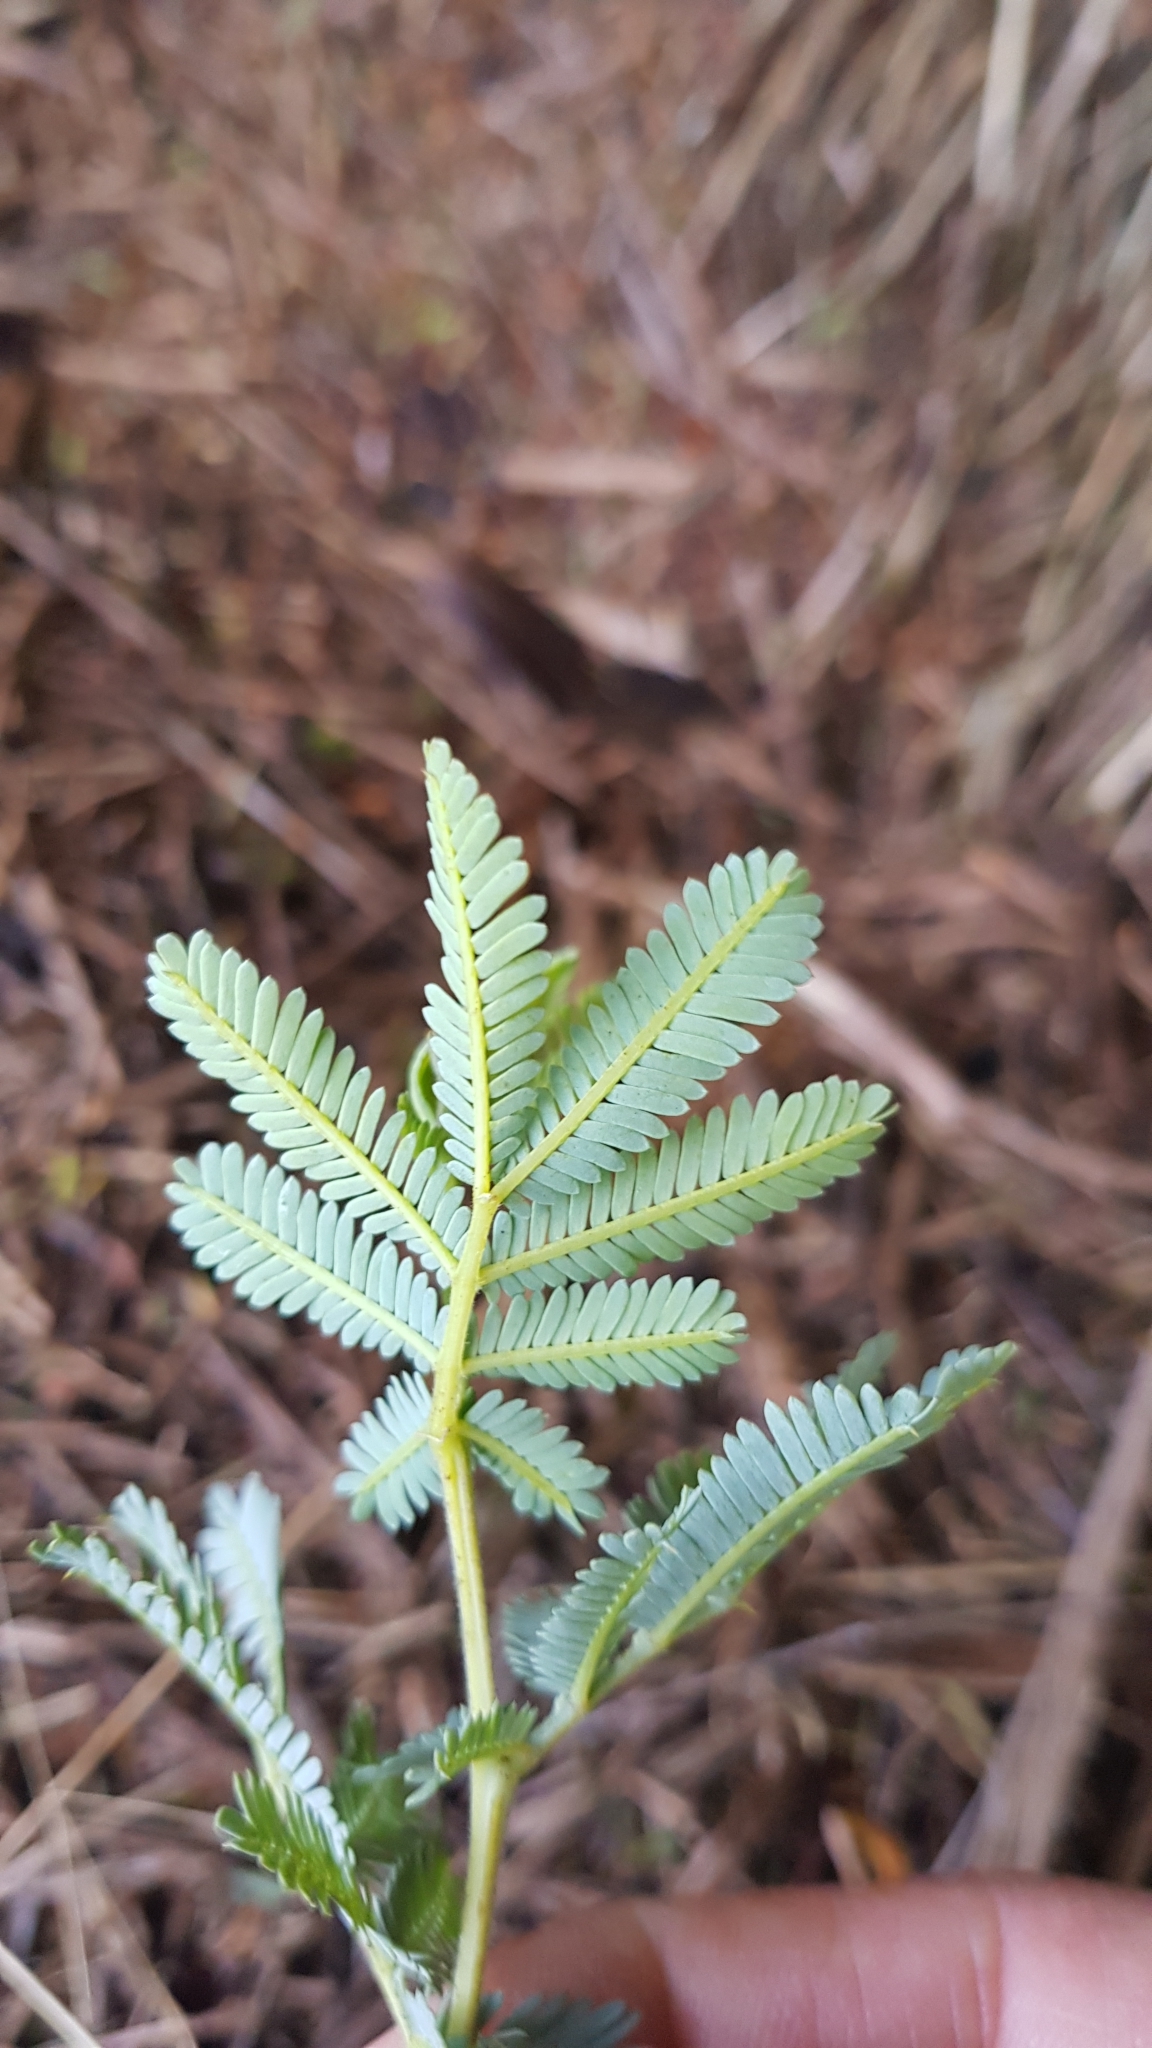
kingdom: Plantae
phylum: Tracheophyta
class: Magnoliopsida
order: Fabales
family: Fabaceae
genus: Acacia
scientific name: Acacia baileyana
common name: Cootamundra wattle
